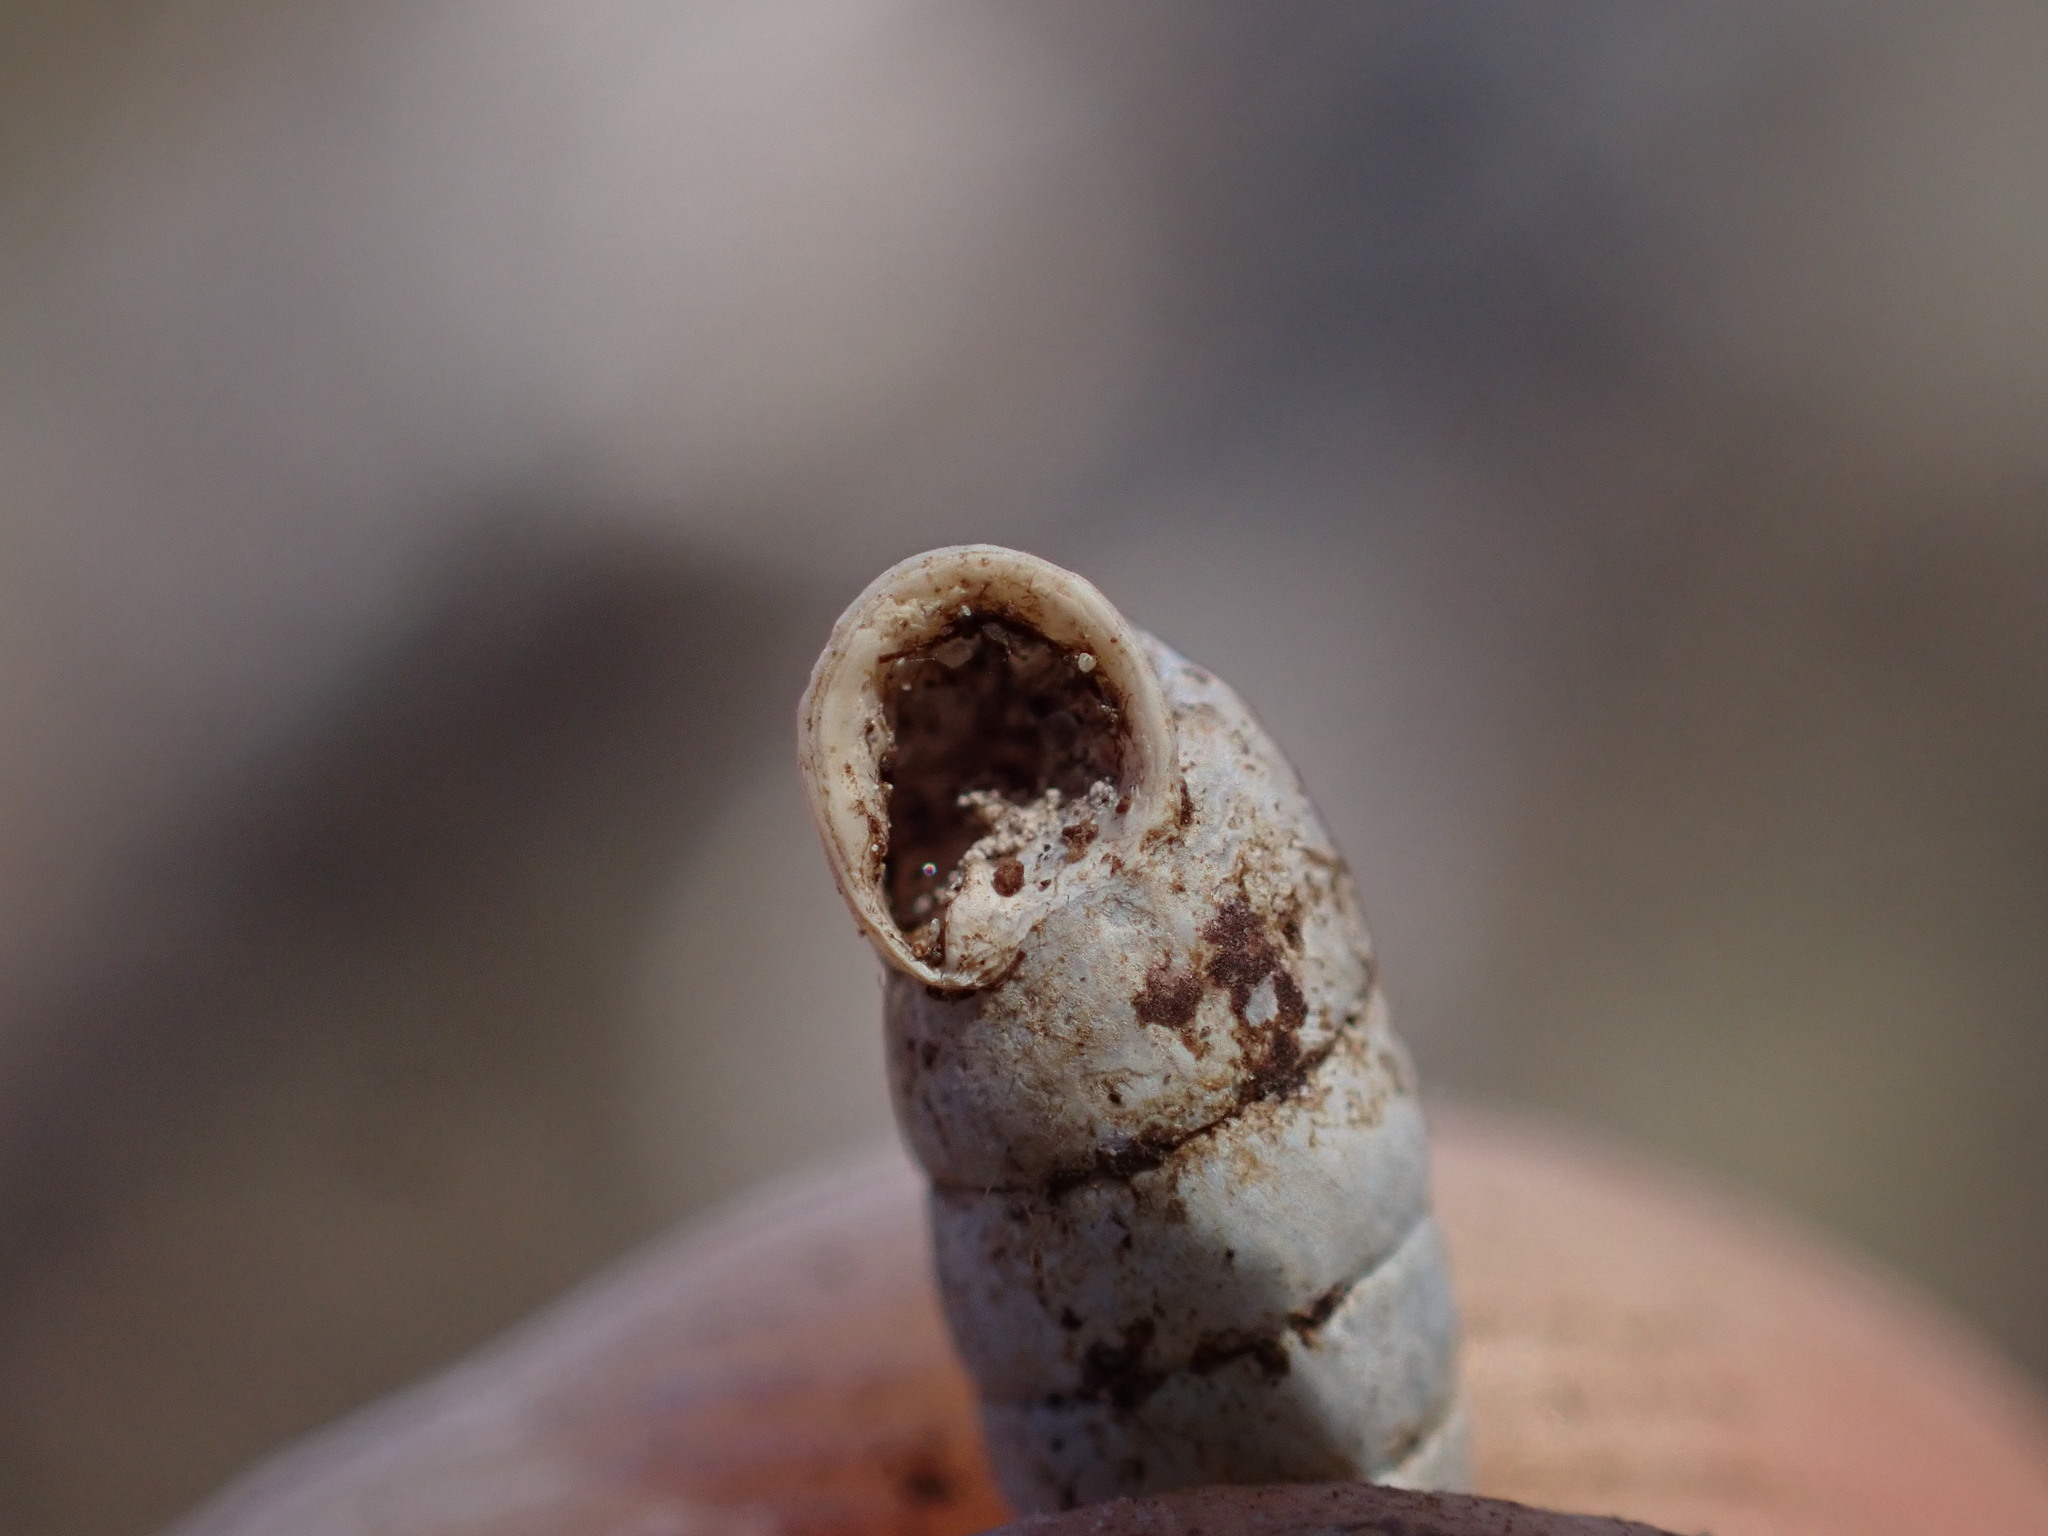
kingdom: Animalia
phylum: Mollusca
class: Gastropoda
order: Stylommatophora
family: Chondrinidae
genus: Granaria
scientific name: Granaria variabilis
